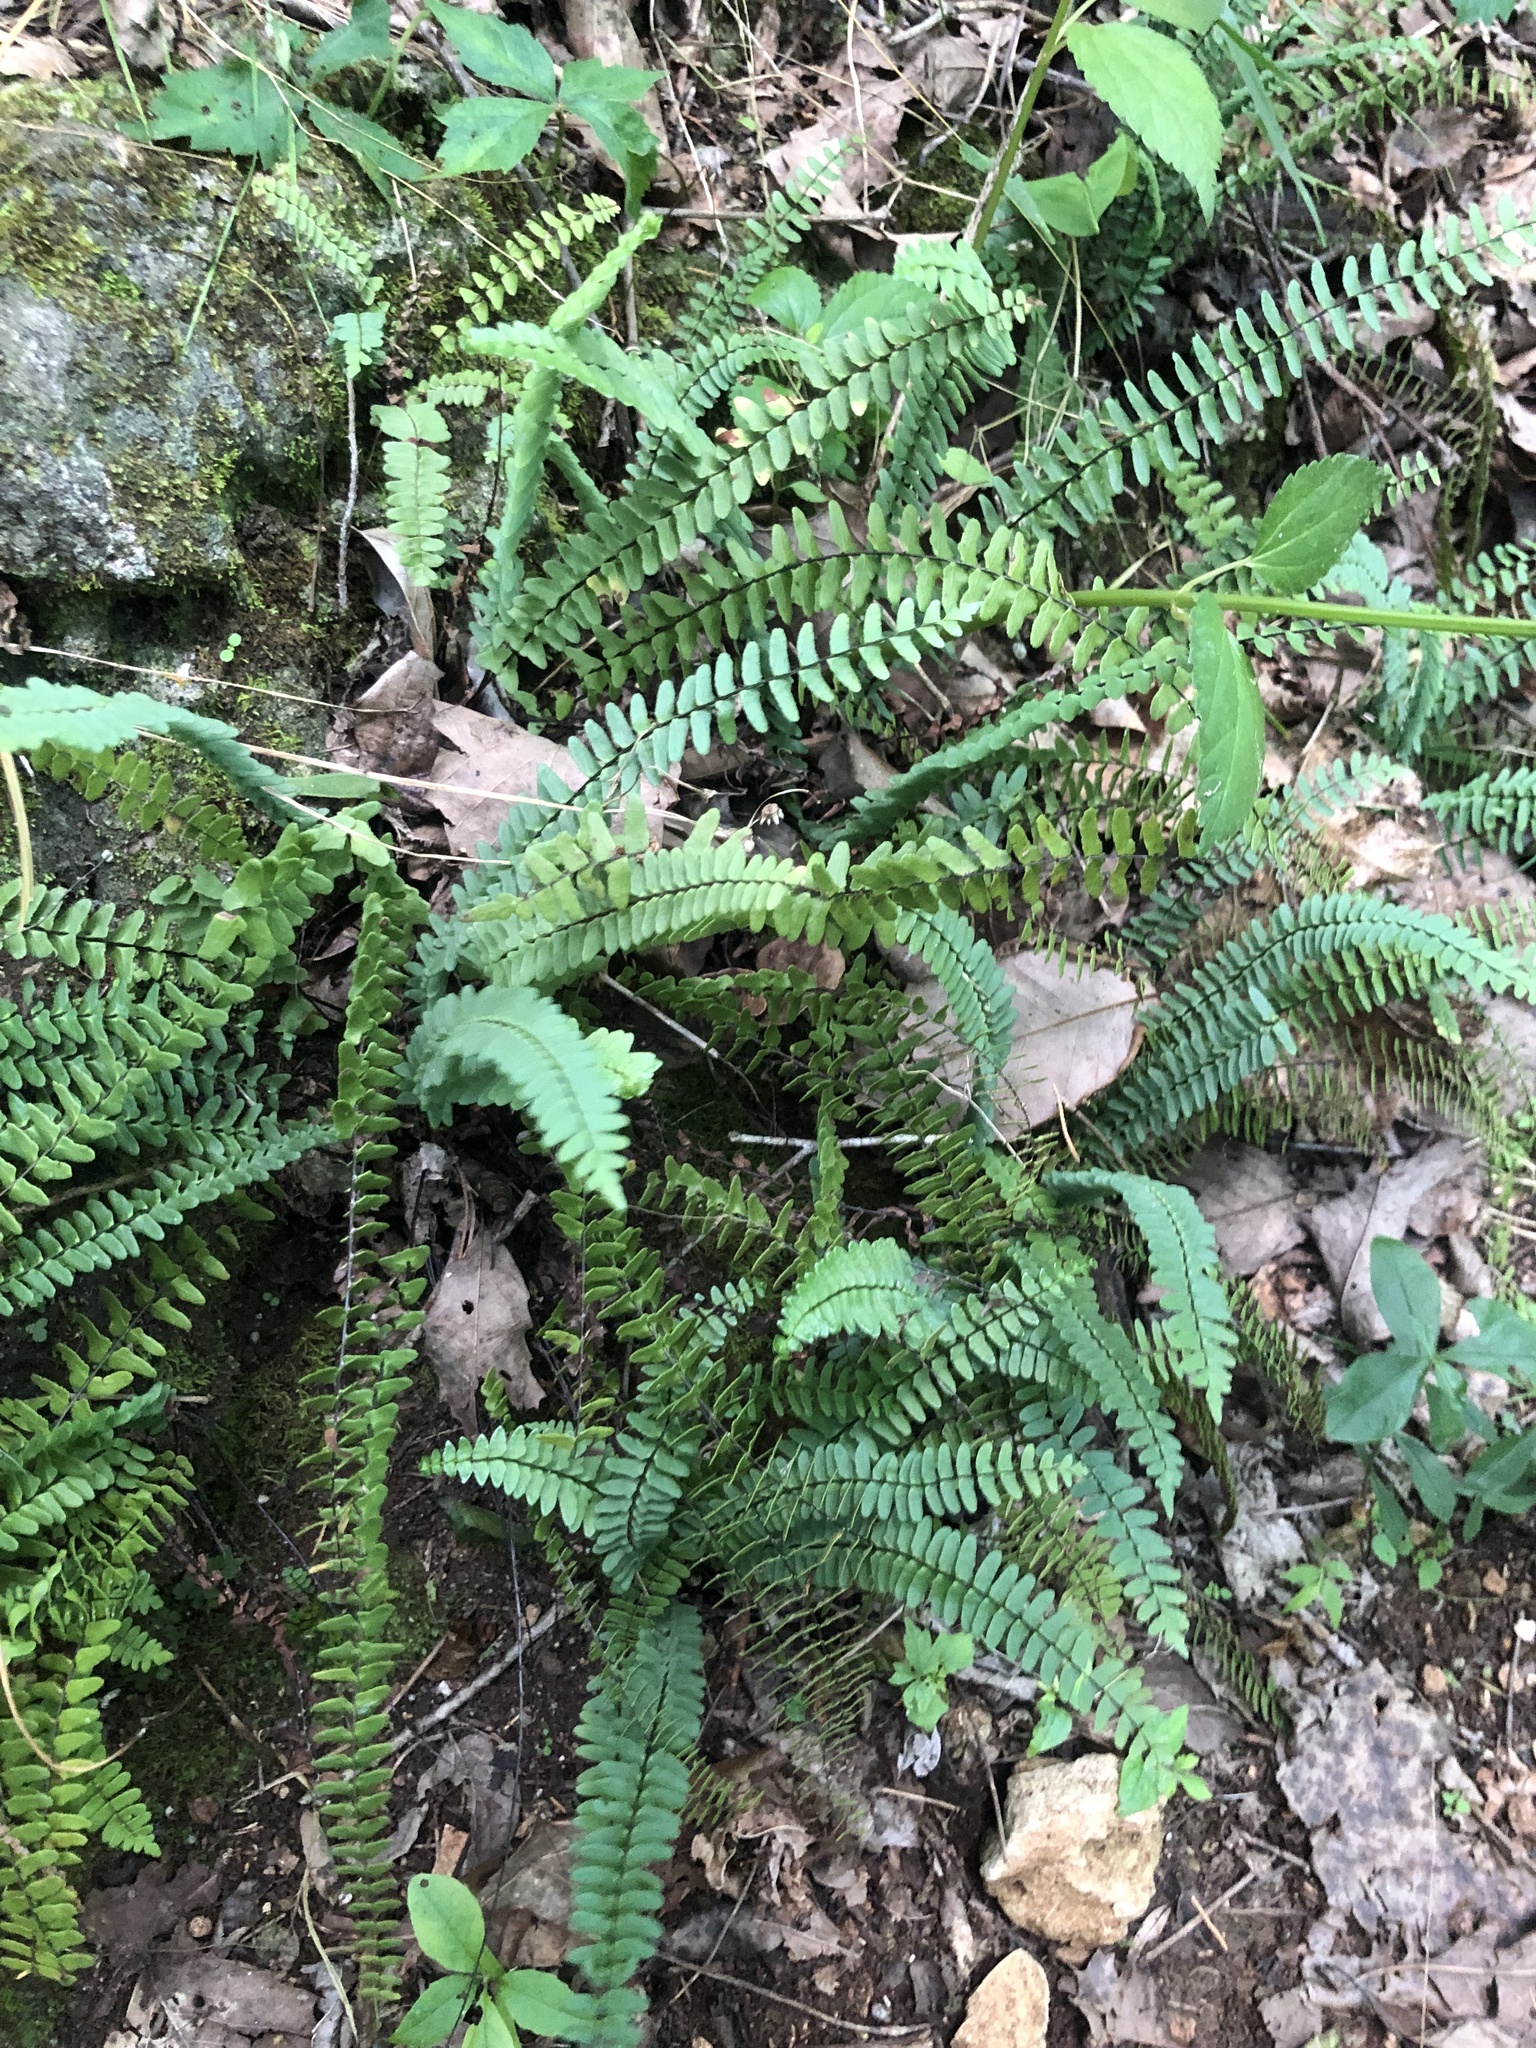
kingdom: Plantae
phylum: Tracheophyta
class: Polypodiopsida
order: Polypodiales
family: Aspleniaceae
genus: Asplenium
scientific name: Asplenium resiliens
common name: Blackstem spleenwort
